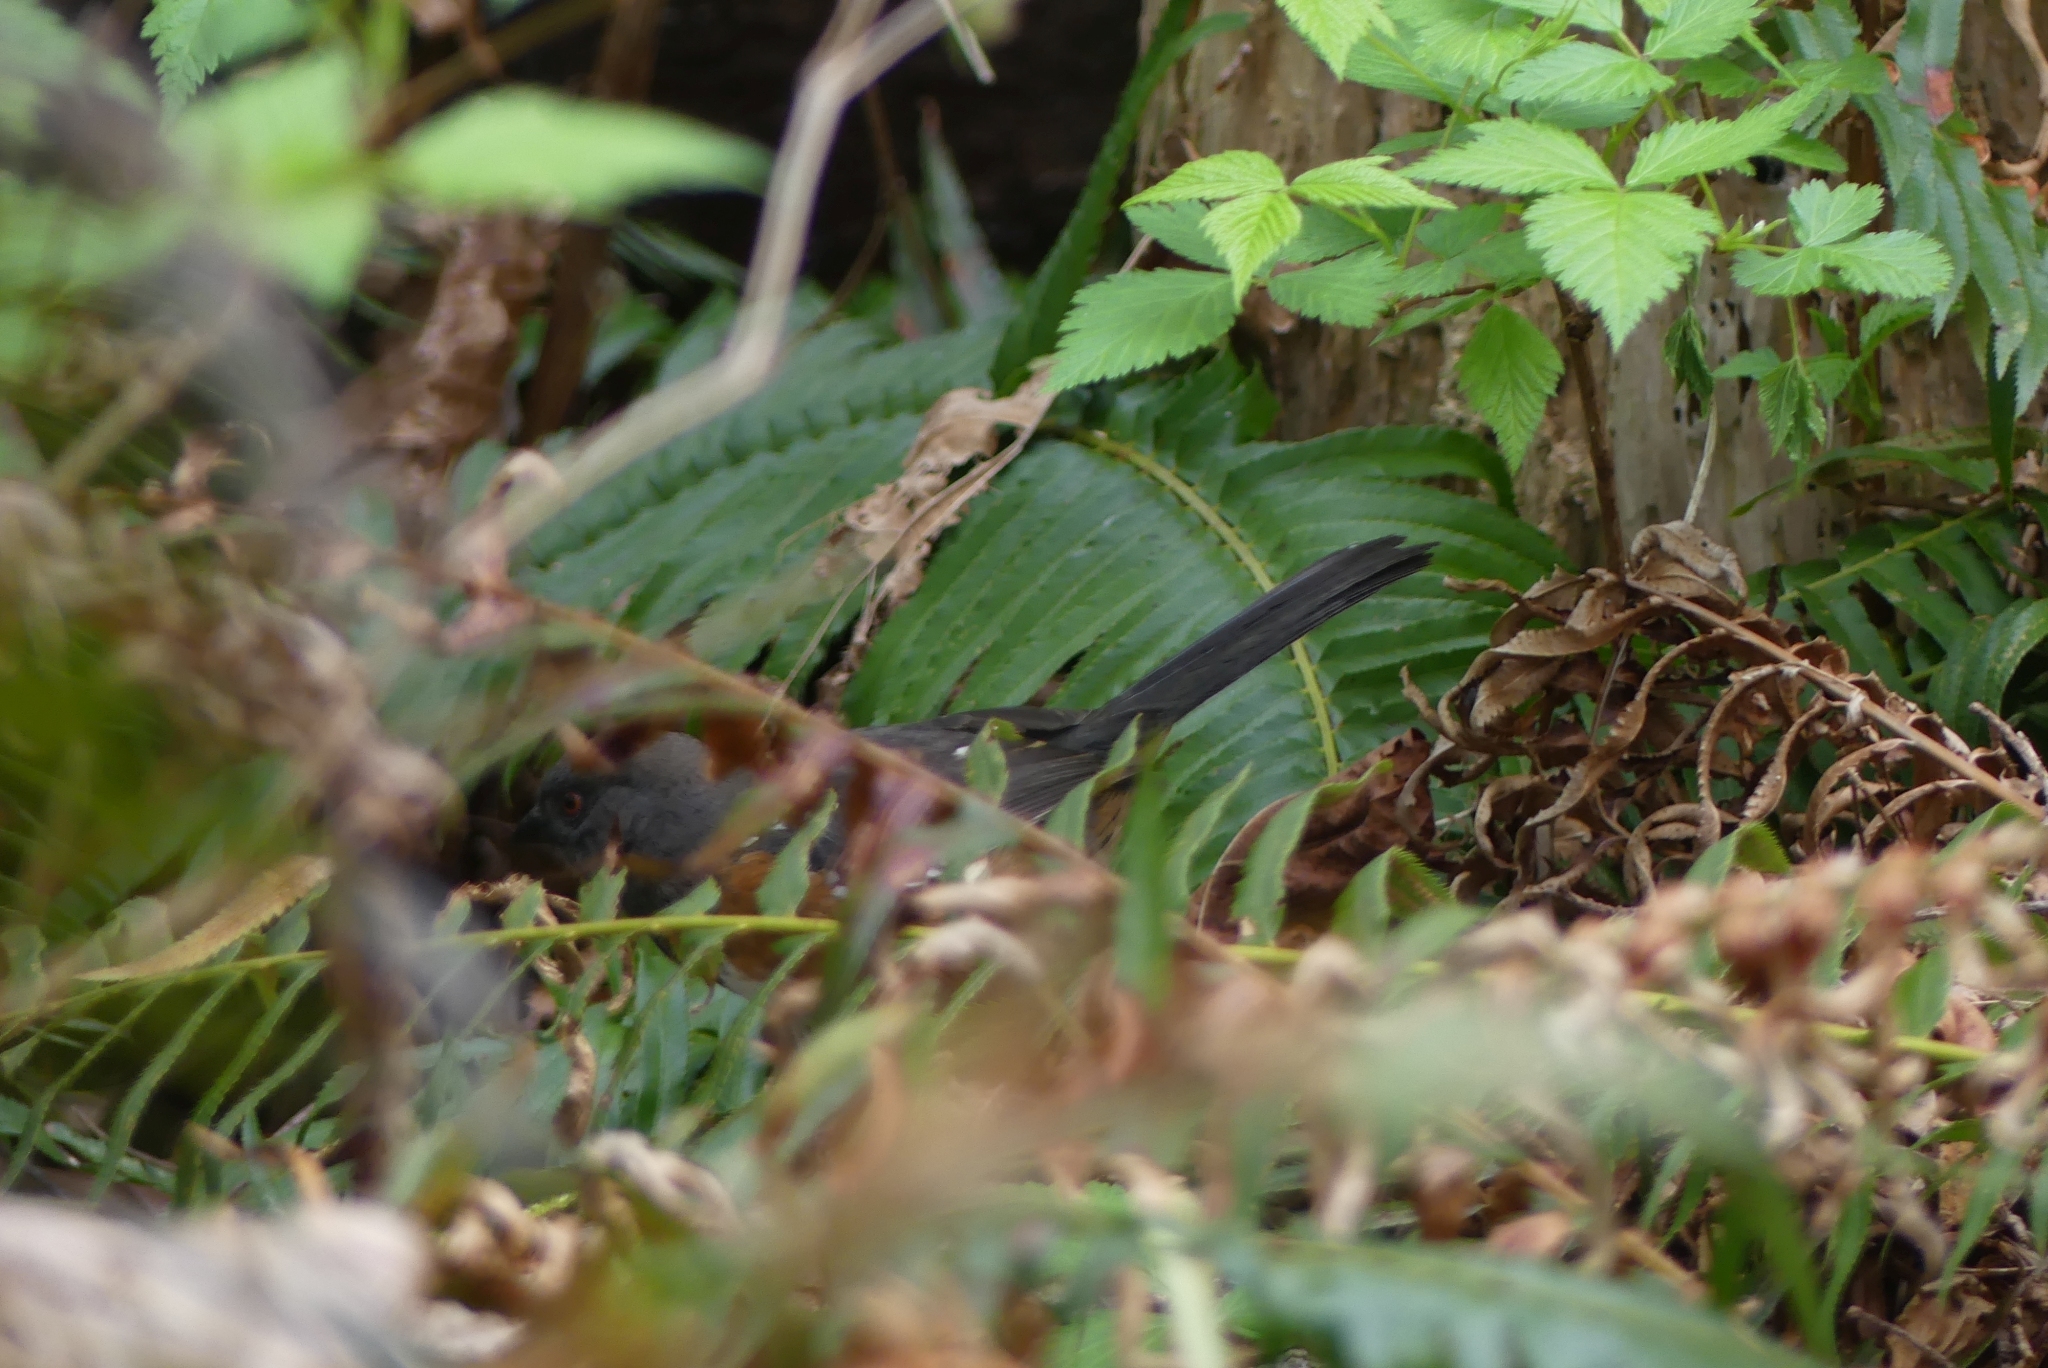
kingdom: Animalia
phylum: Chordata
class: Aves
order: Passeriformes
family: Passerellidae
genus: Pipilo
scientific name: Pipilo maculatus
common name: Spotted towhee
